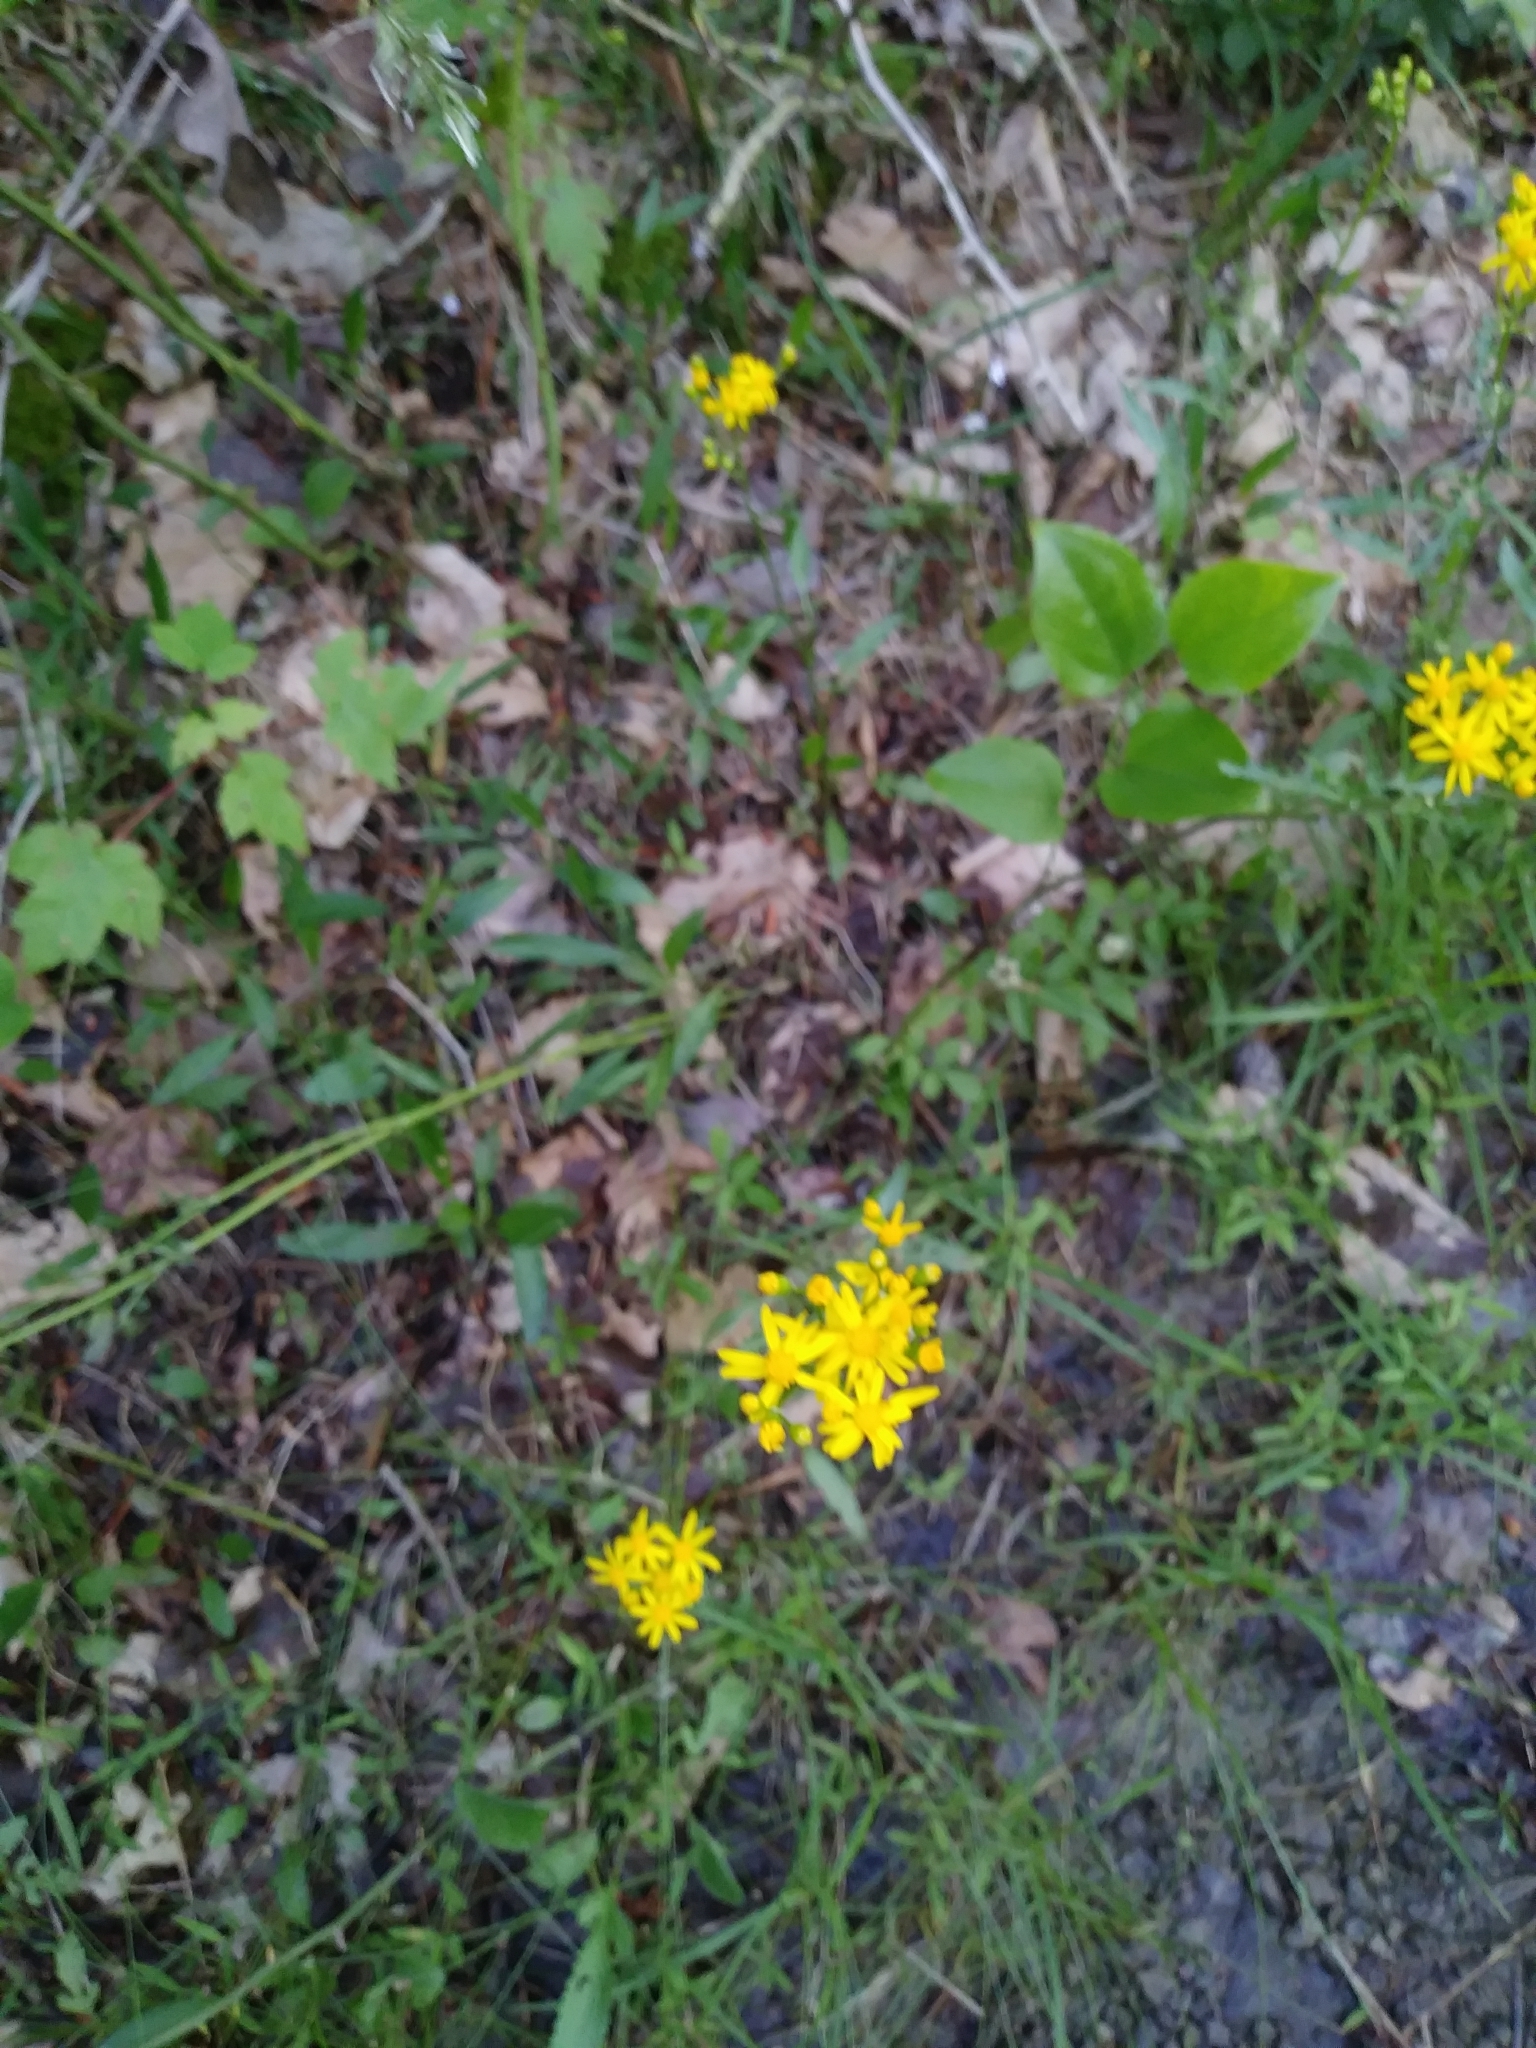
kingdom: Plantae
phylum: Tracheophyta
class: Magnoliopsida
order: Asterales
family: Asteraceae
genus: Packera
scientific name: Packera anonyma
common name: Small ragwort
